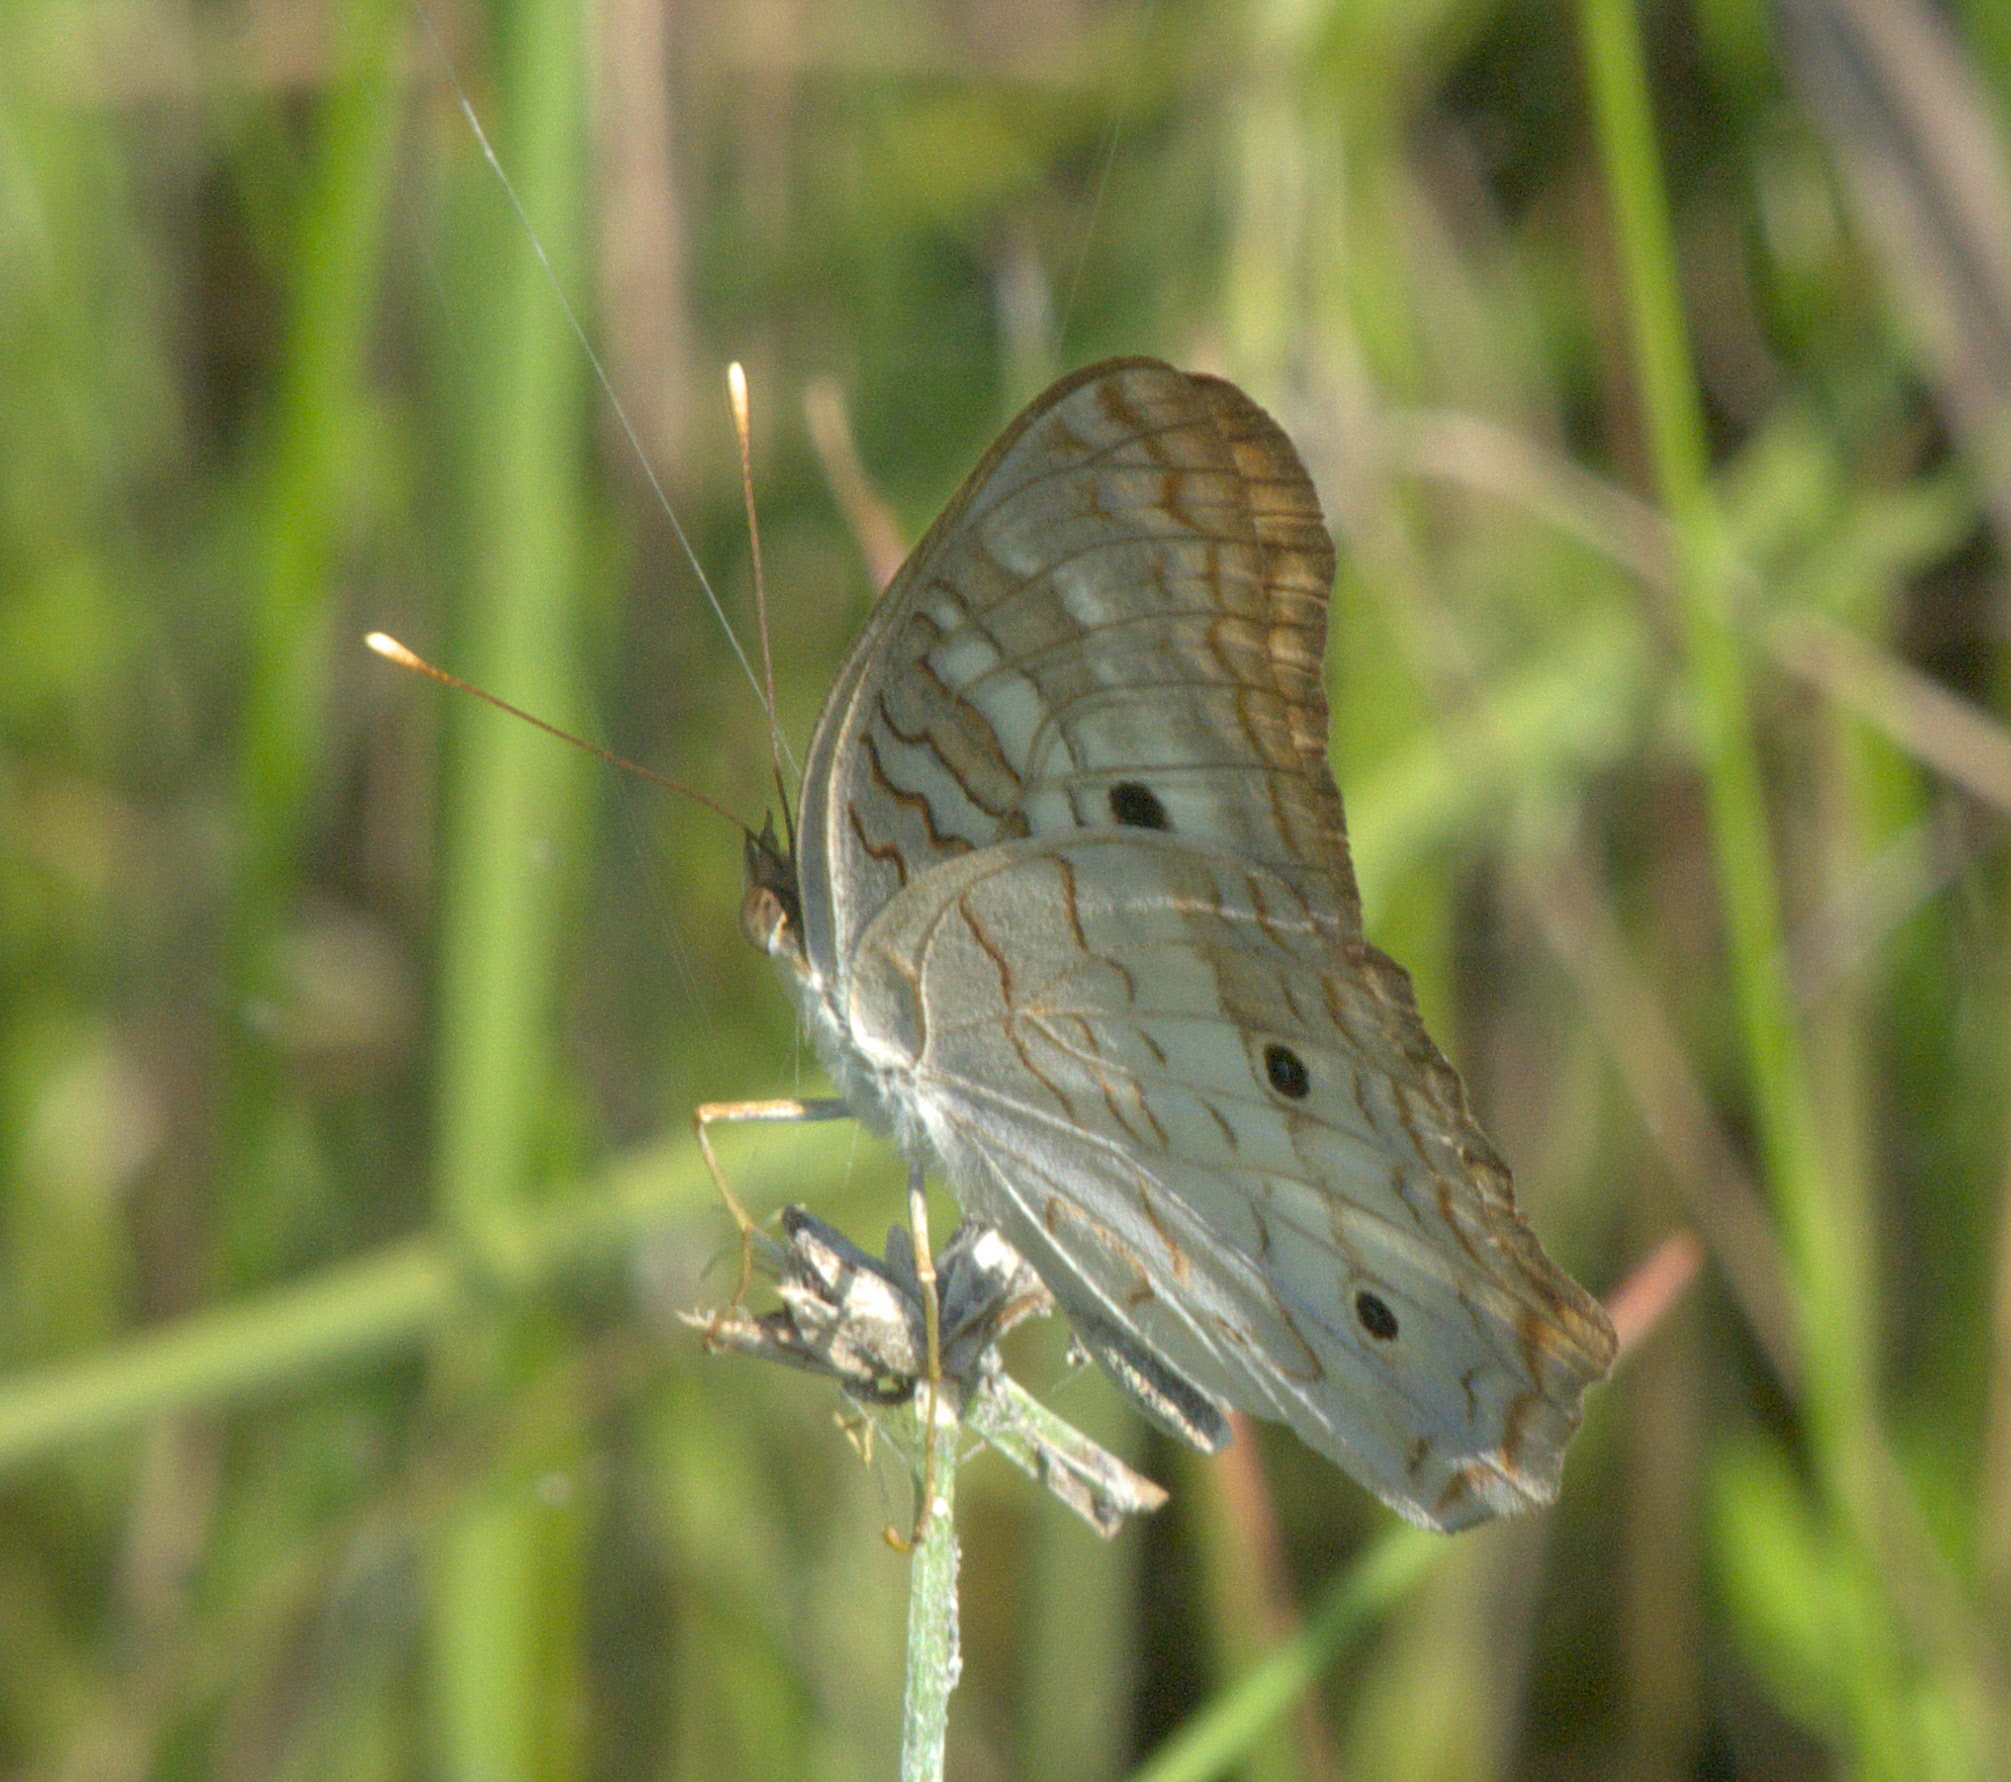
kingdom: Animalia
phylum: Arthropoda
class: Insecta
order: Lepidoptera
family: Nymphalidae
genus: Anartia
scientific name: Anartia jatrophae
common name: White peacock
